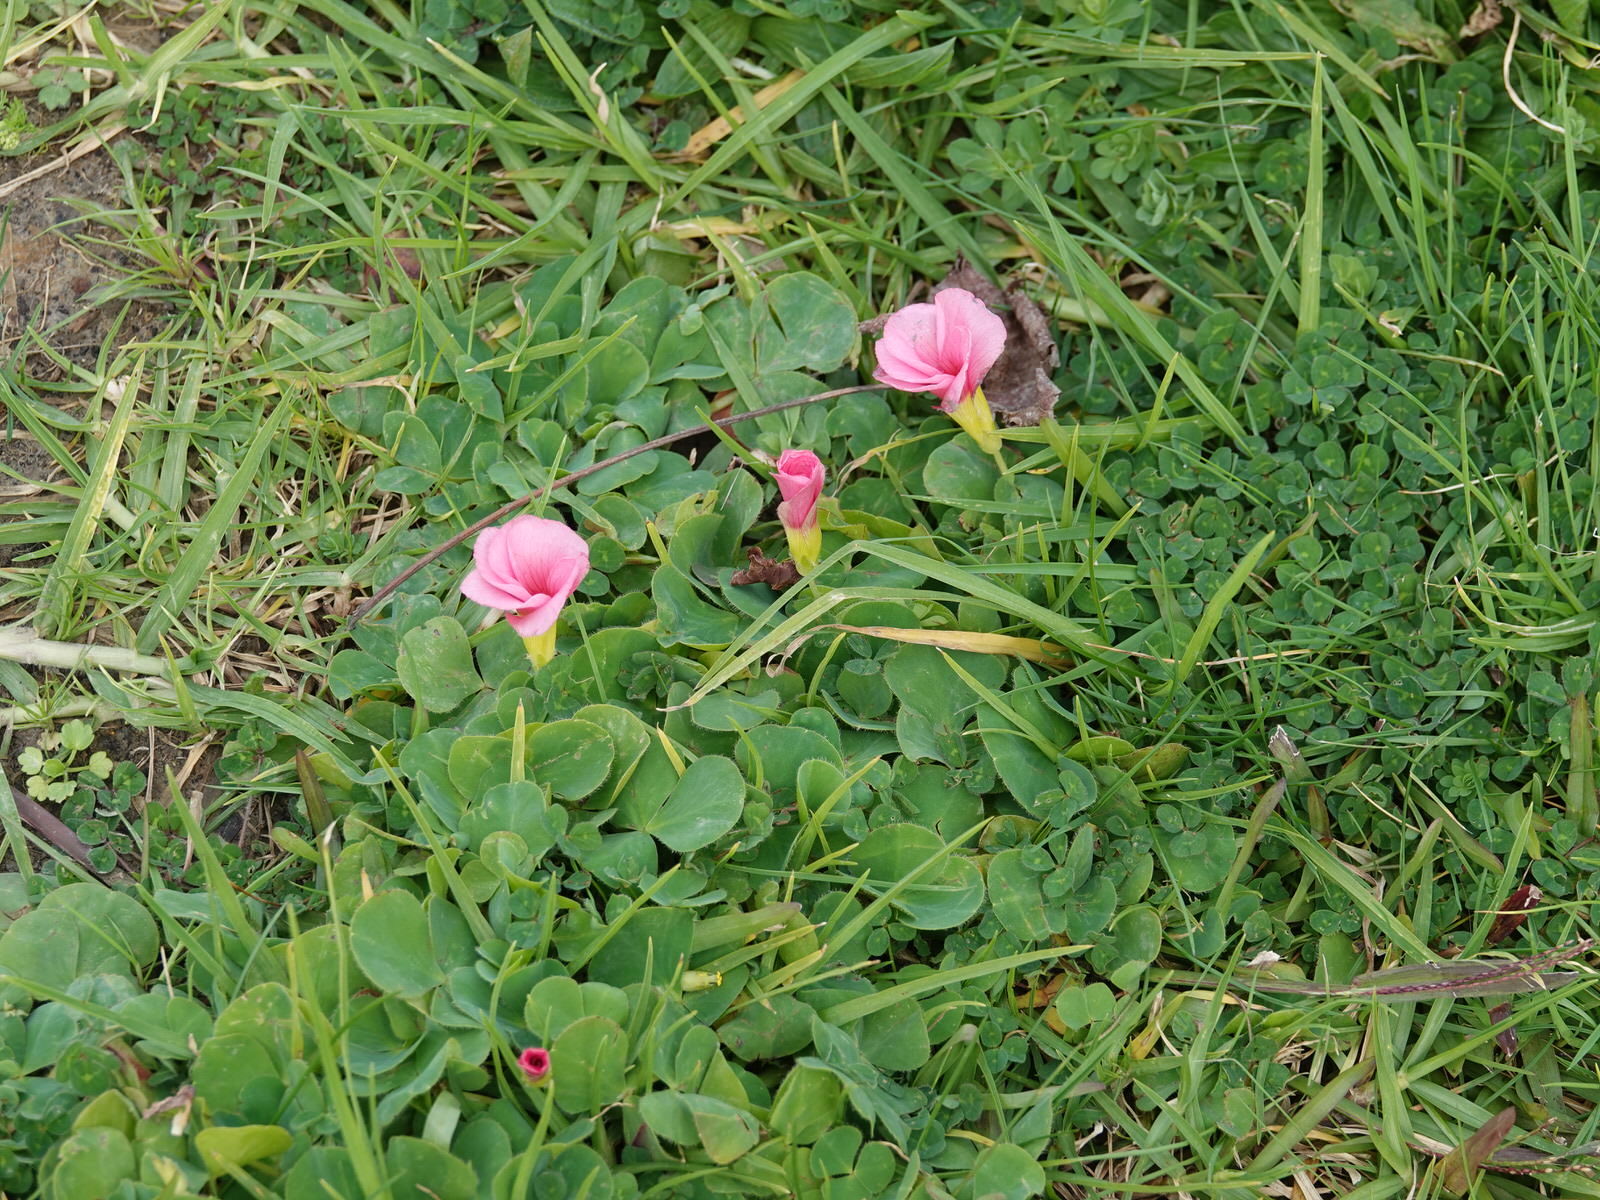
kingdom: Plantae
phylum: Tracheophyta
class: Magnoliopsida
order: Oxalidales
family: Oxalidaceae
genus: Oxalis
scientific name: Oxalis purpurea
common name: Purple woodsorrel
